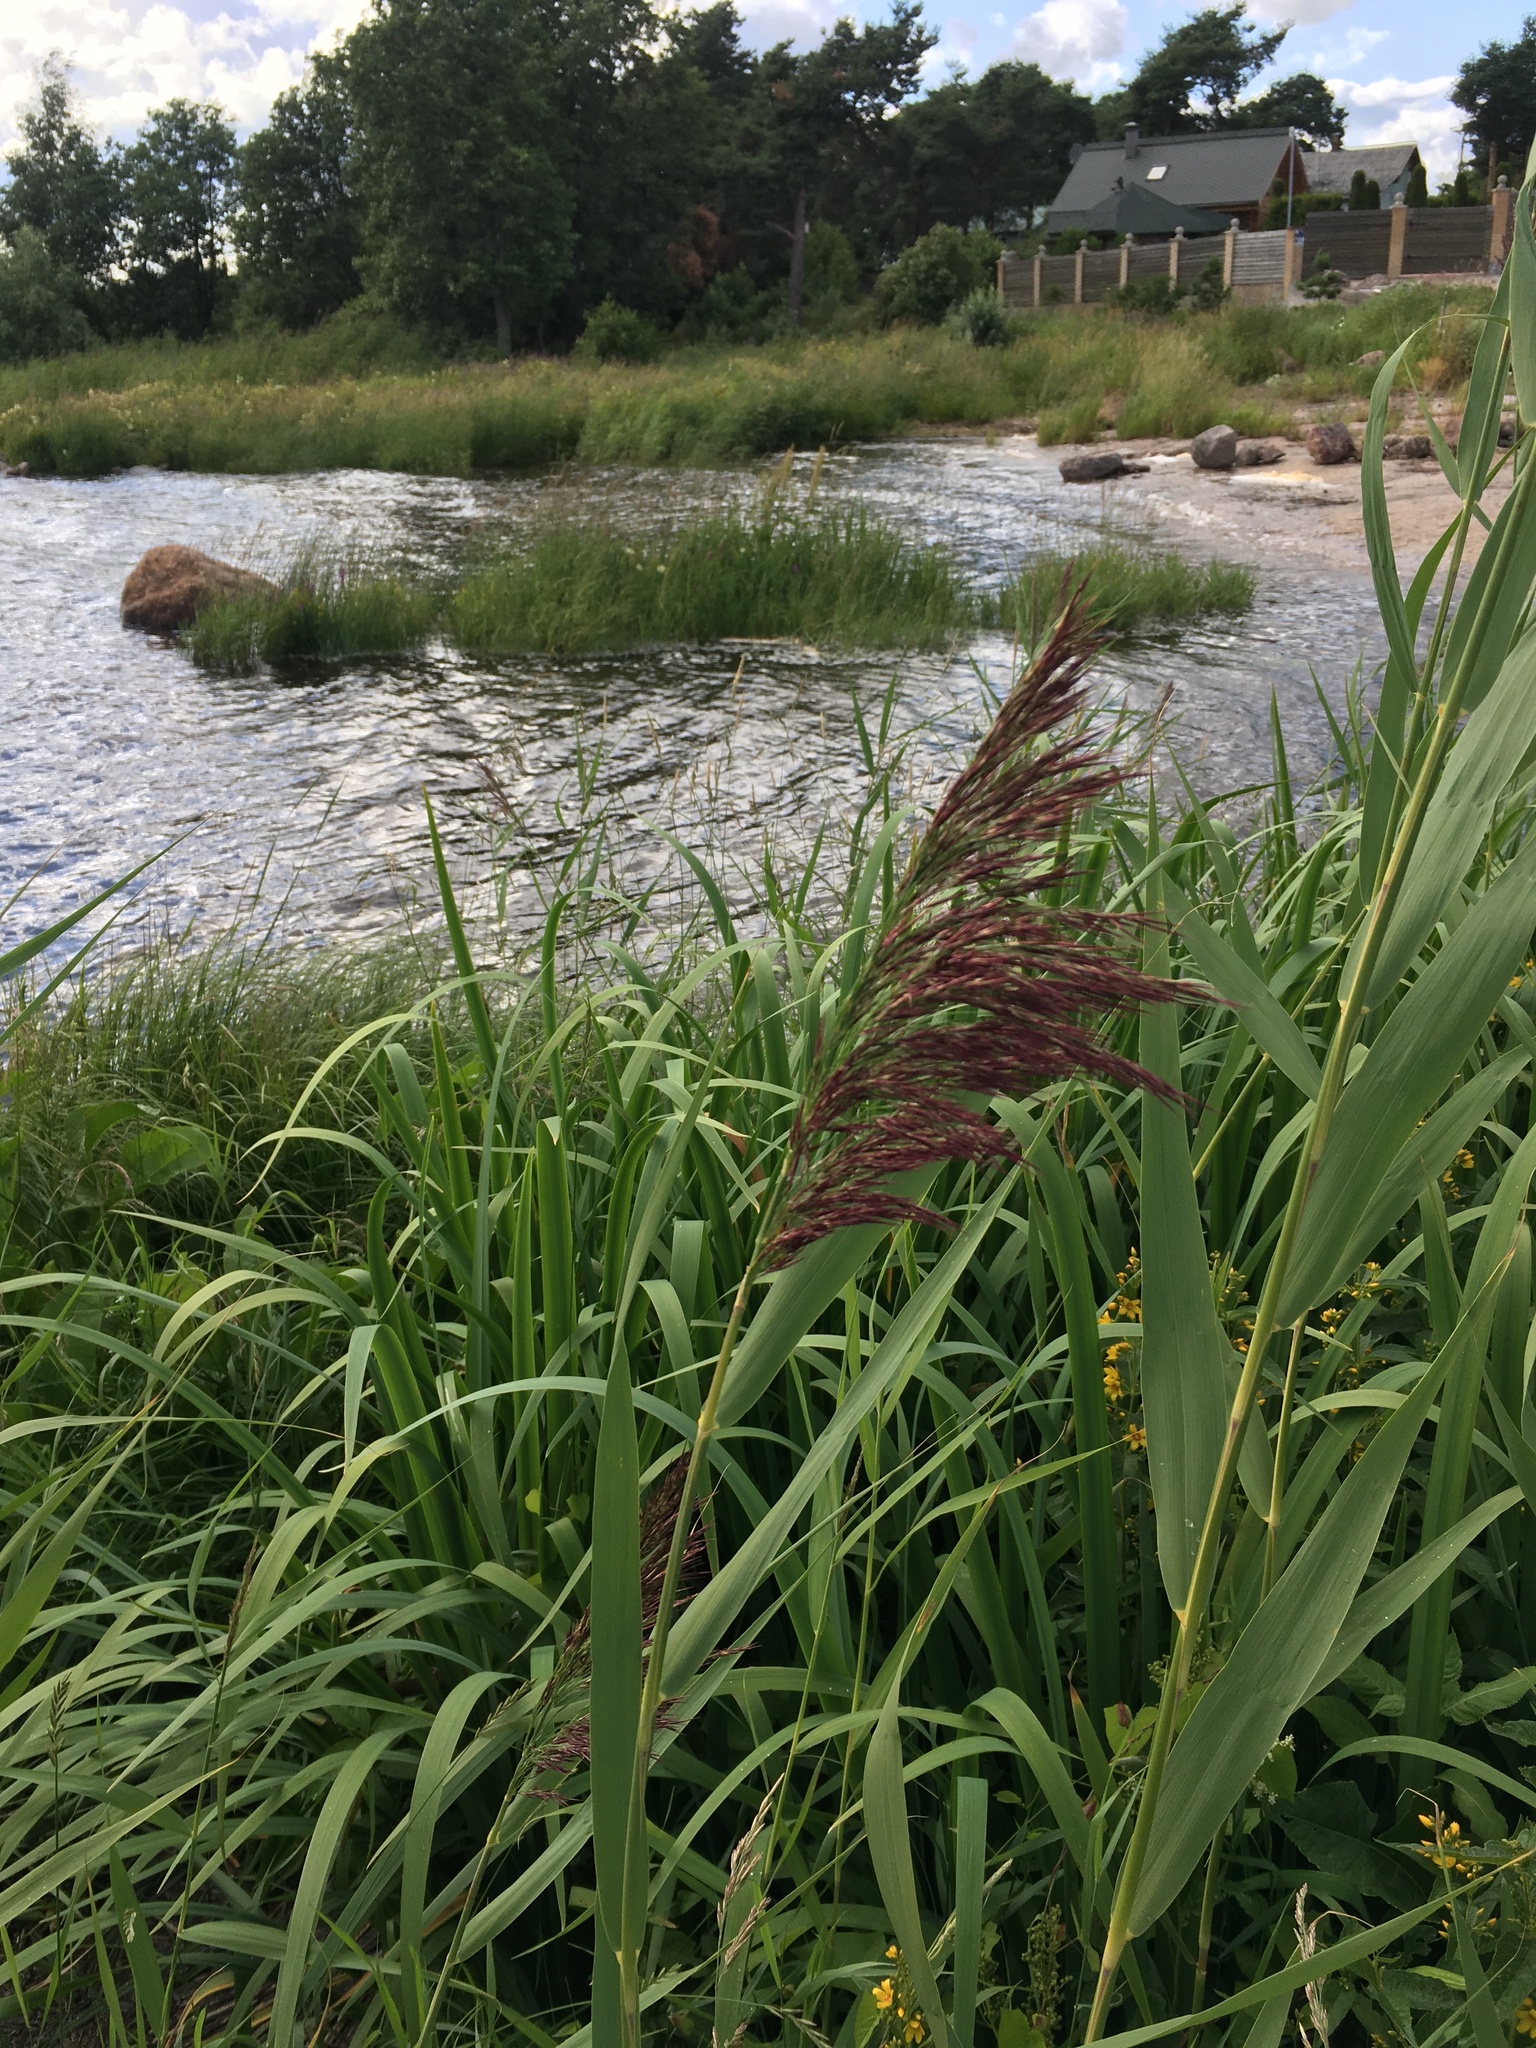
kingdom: Plantae
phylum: Tracheophyta
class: Liliopsida
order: Poales
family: Poaceae
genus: Phragmites
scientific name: Phragmites australis
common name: Common reed
